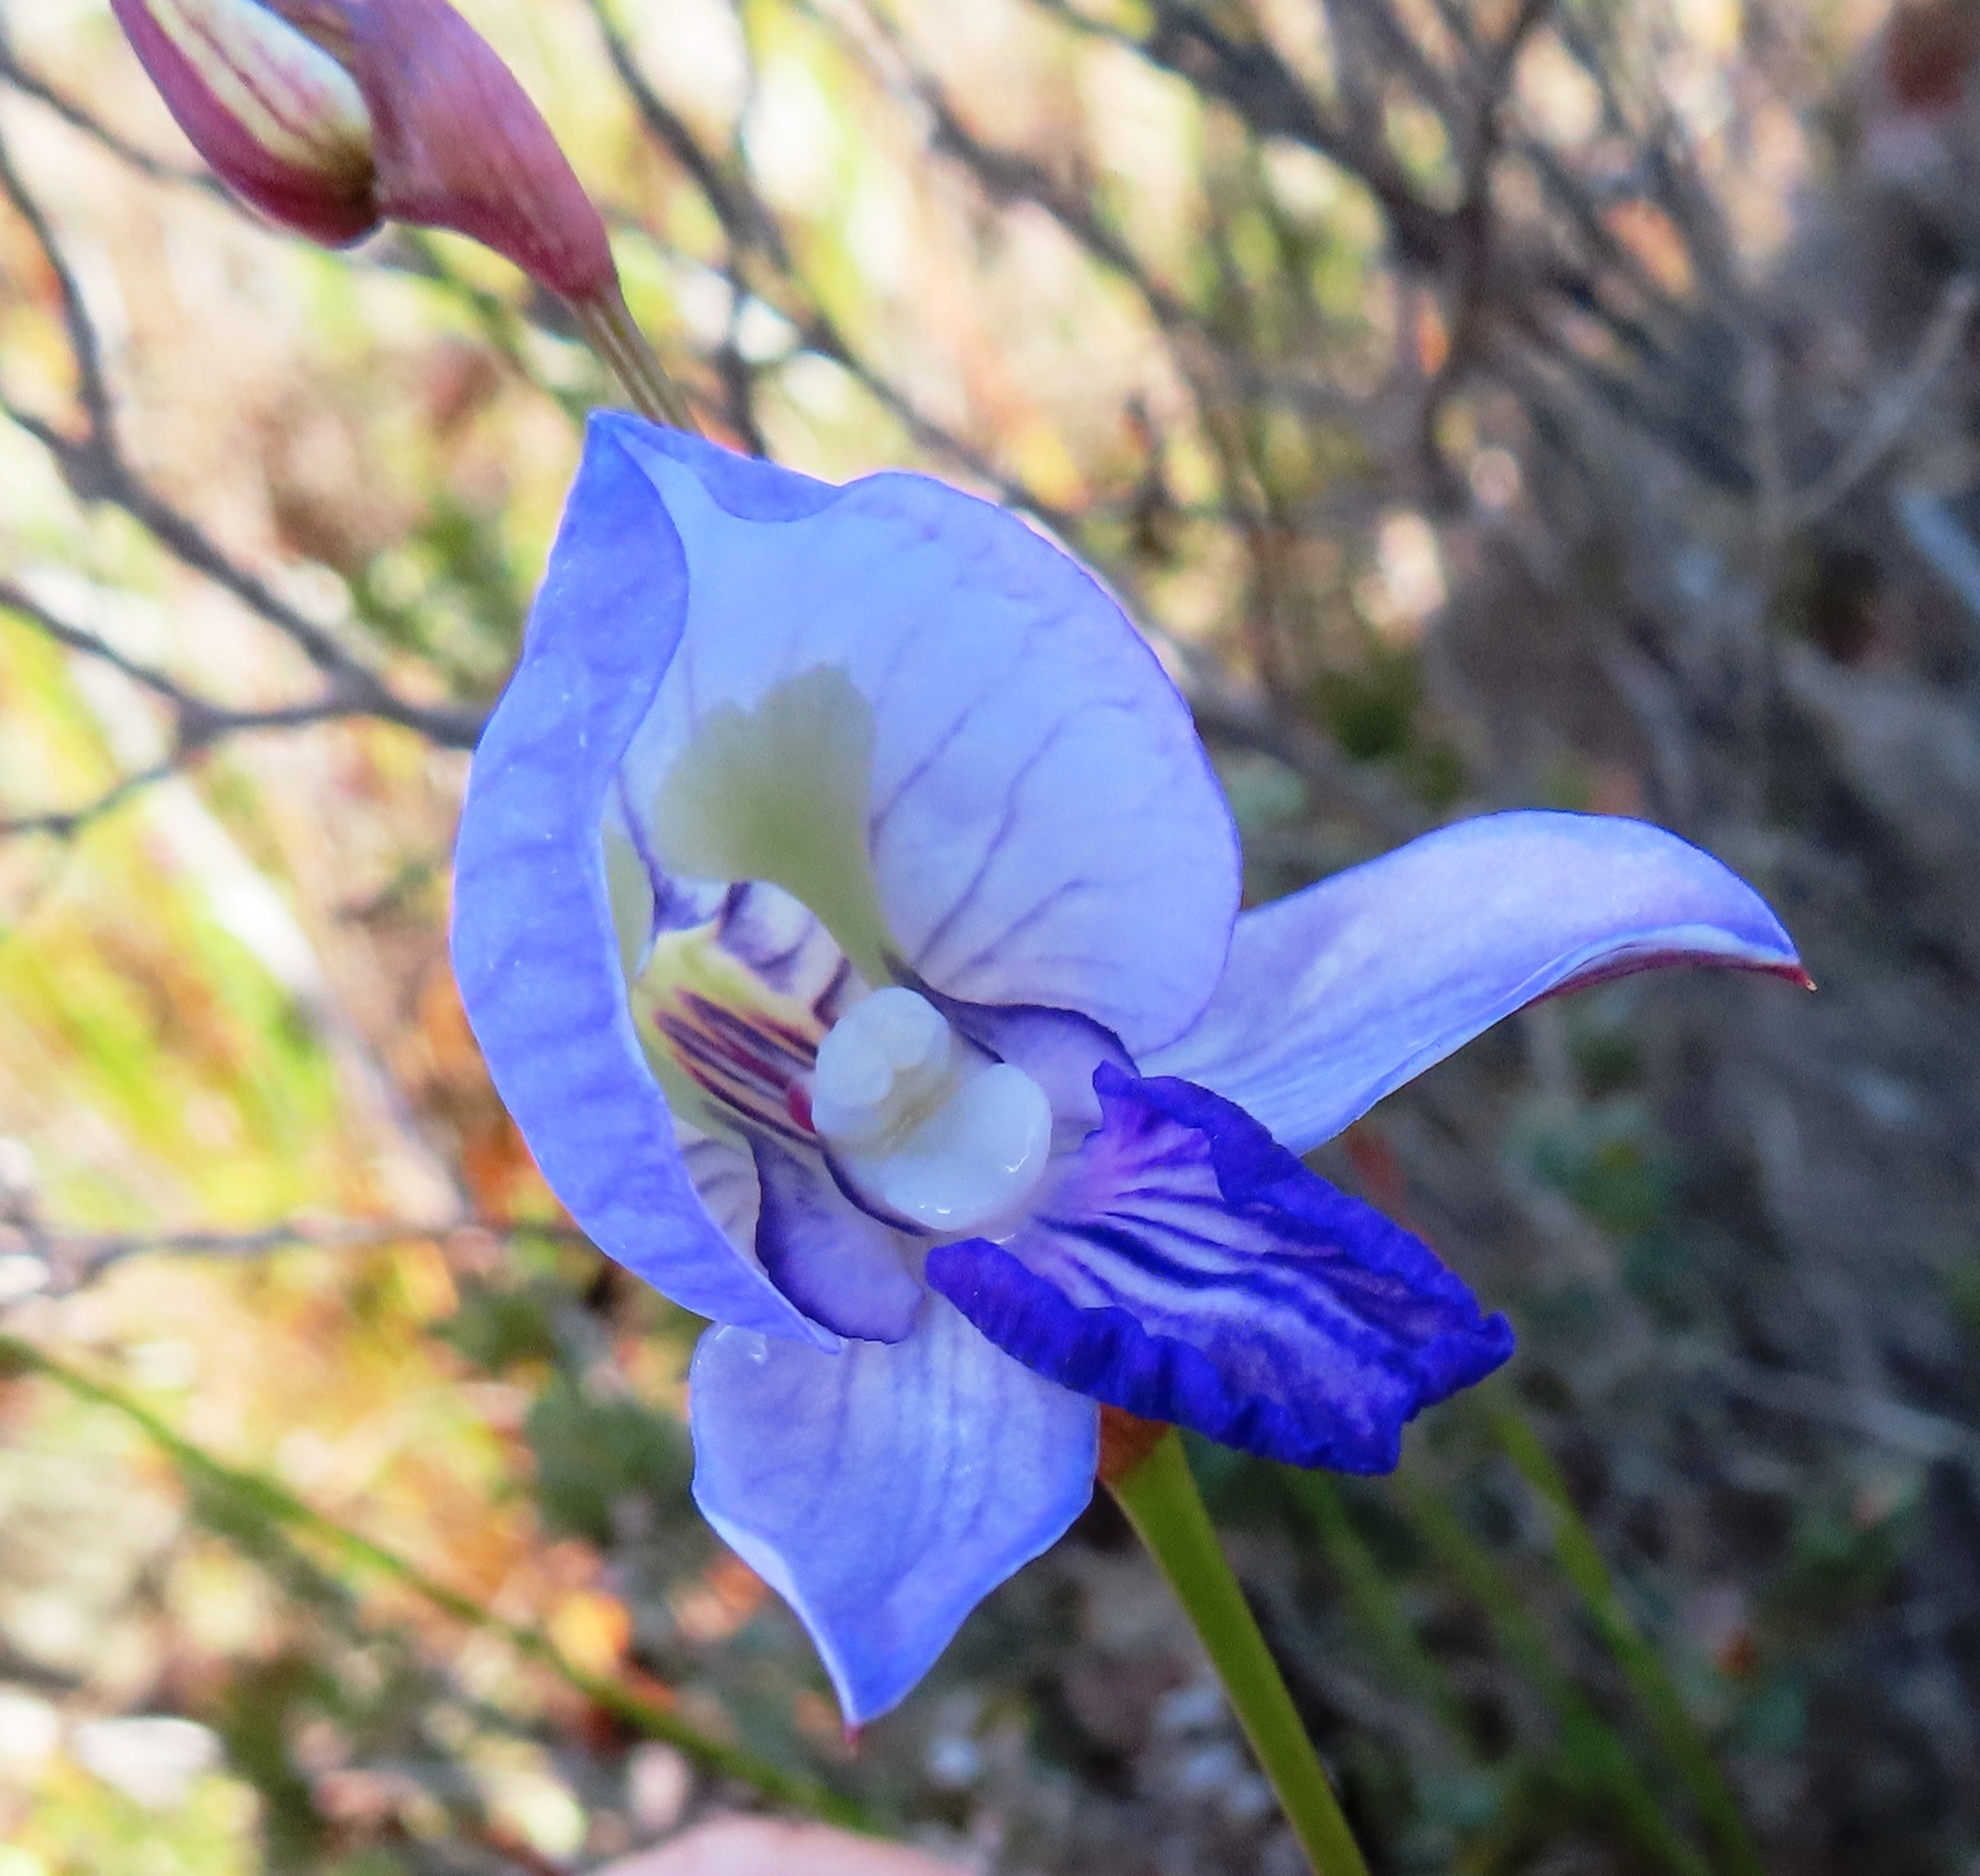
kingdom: Plantae
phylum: Tracheophyta
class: Liliopsida
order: Asparagales
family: Orchidaceae
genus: Disa
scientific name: Disa purpurascens
